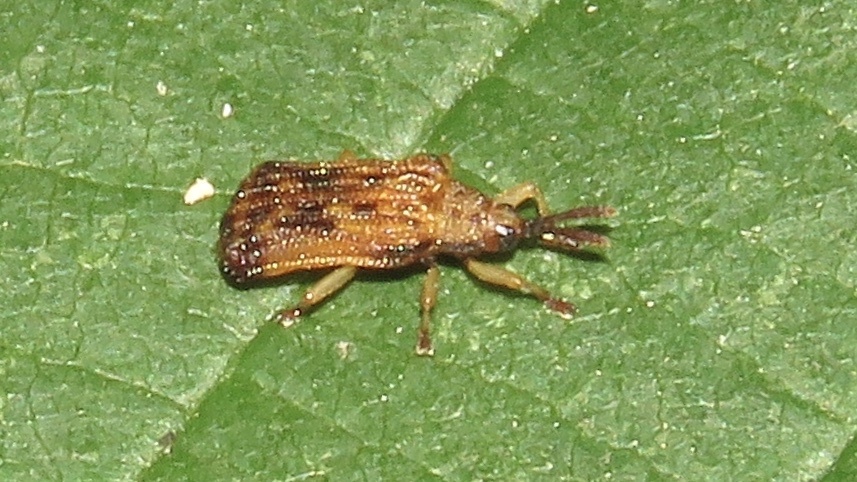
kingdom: Animalia
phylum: Arthropoda
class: Insecta
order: Coleoptera
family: Chrysomelidae
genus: Baliosus
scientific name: Baliosus nervosus
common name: Basswood leaf miner
